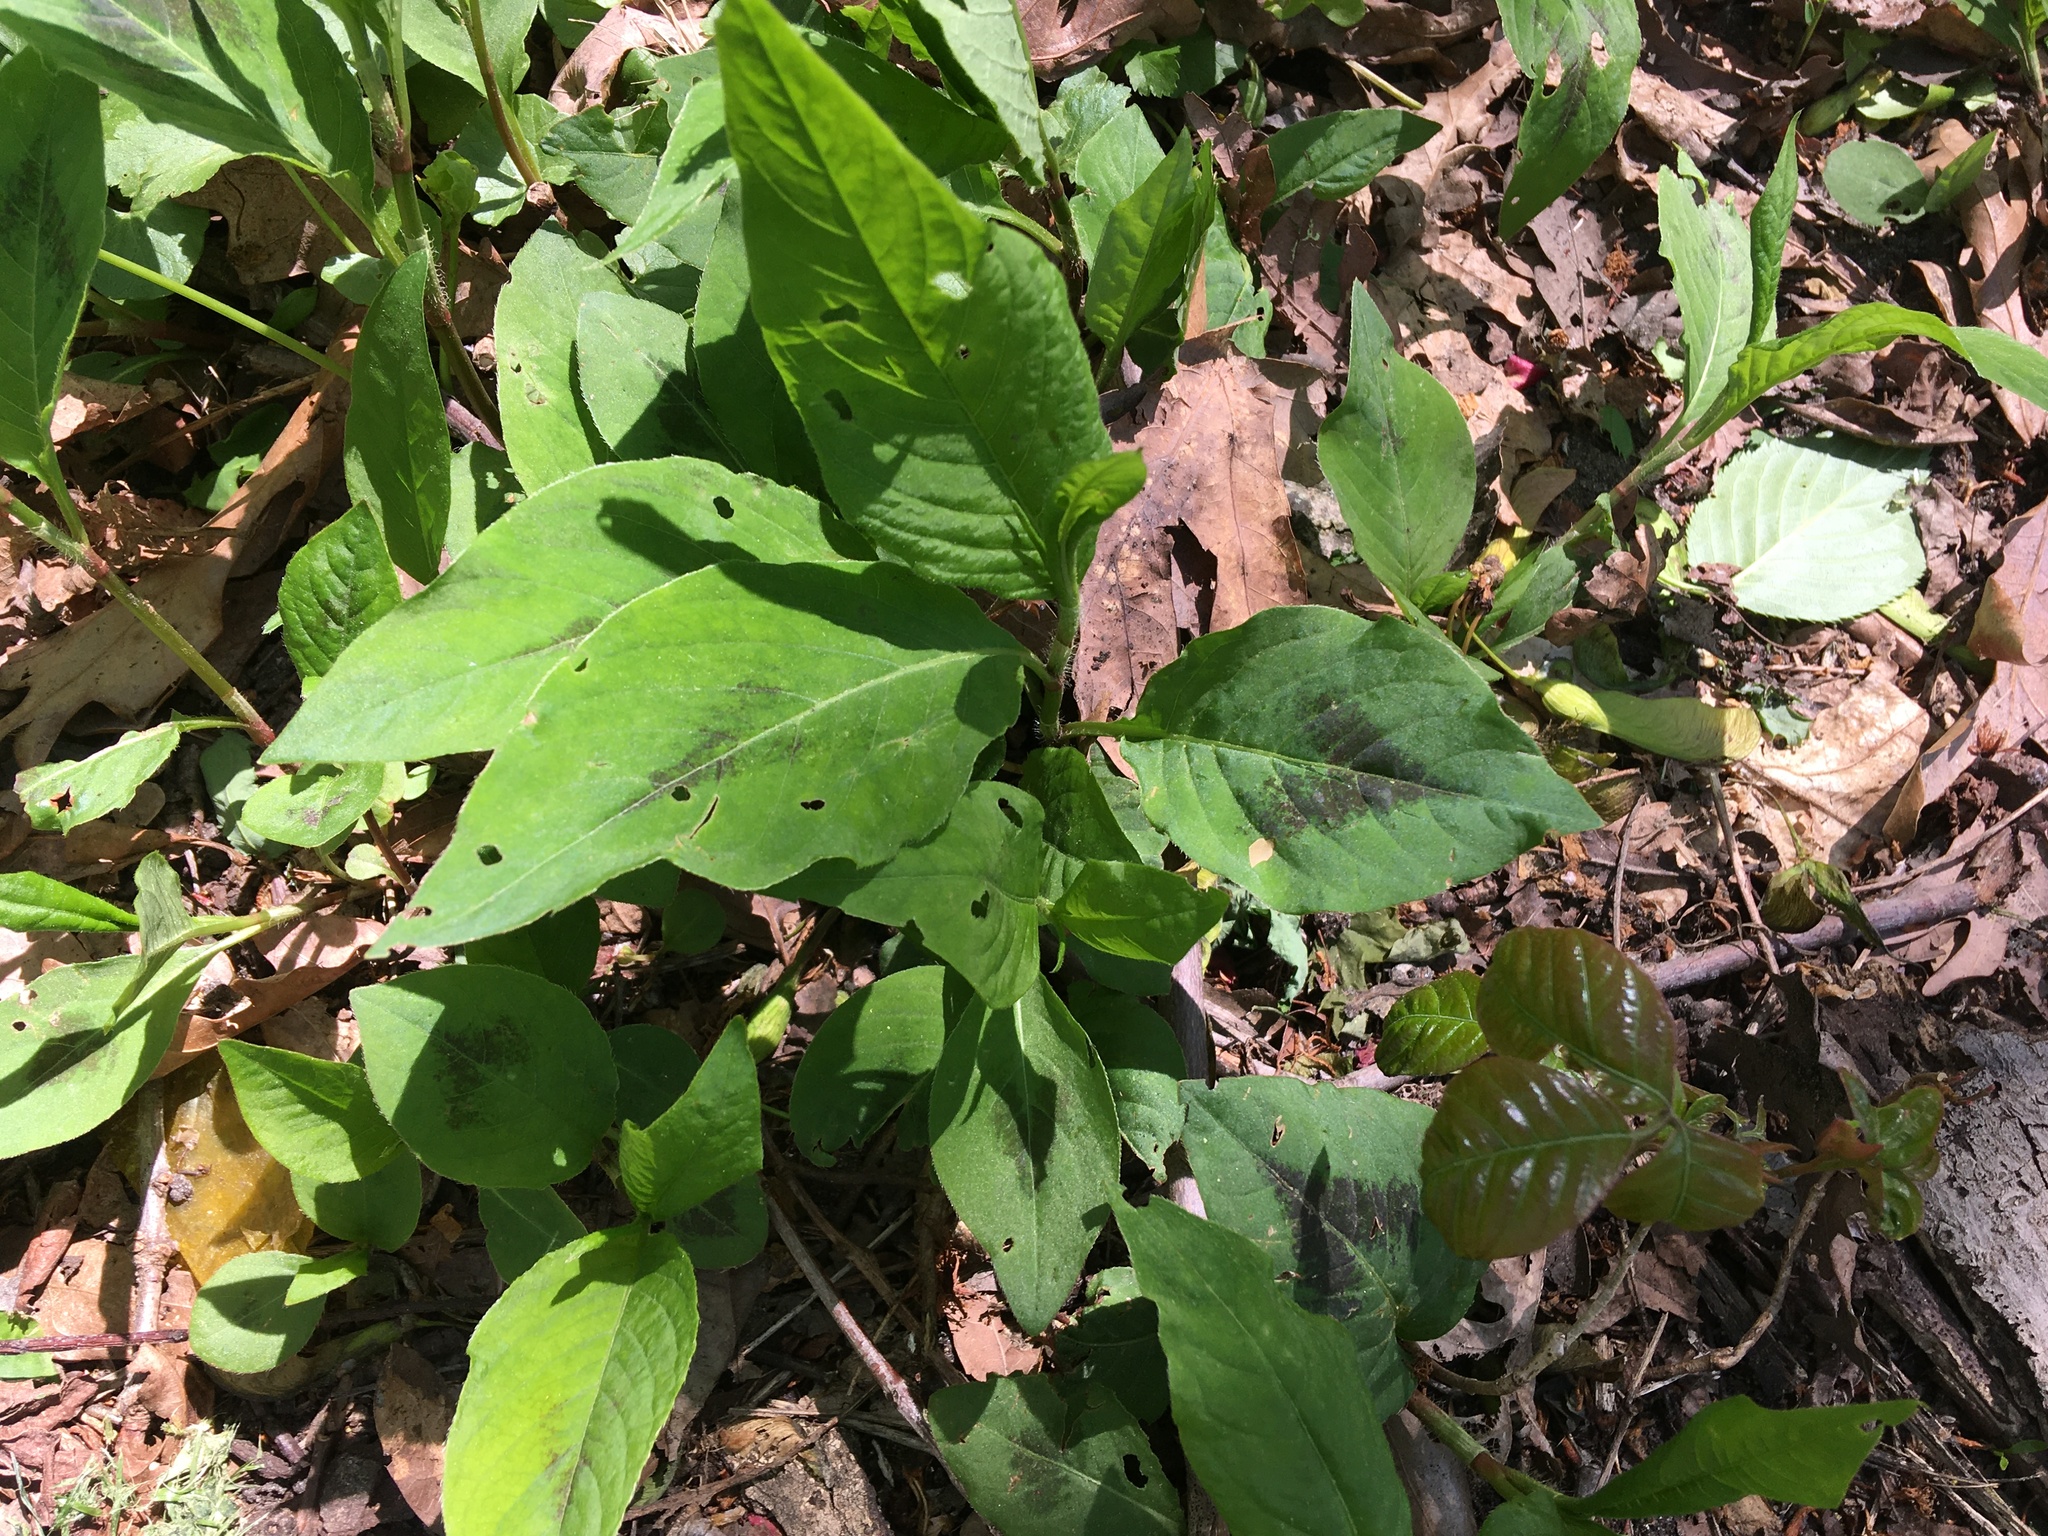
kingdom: Plantae
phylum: Tracheophyta
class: Magnoliopsida
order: Caryophyllales
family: Polygonaceae
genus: Persicaria
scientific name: Persicaria virginiana
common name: Jumpseed
